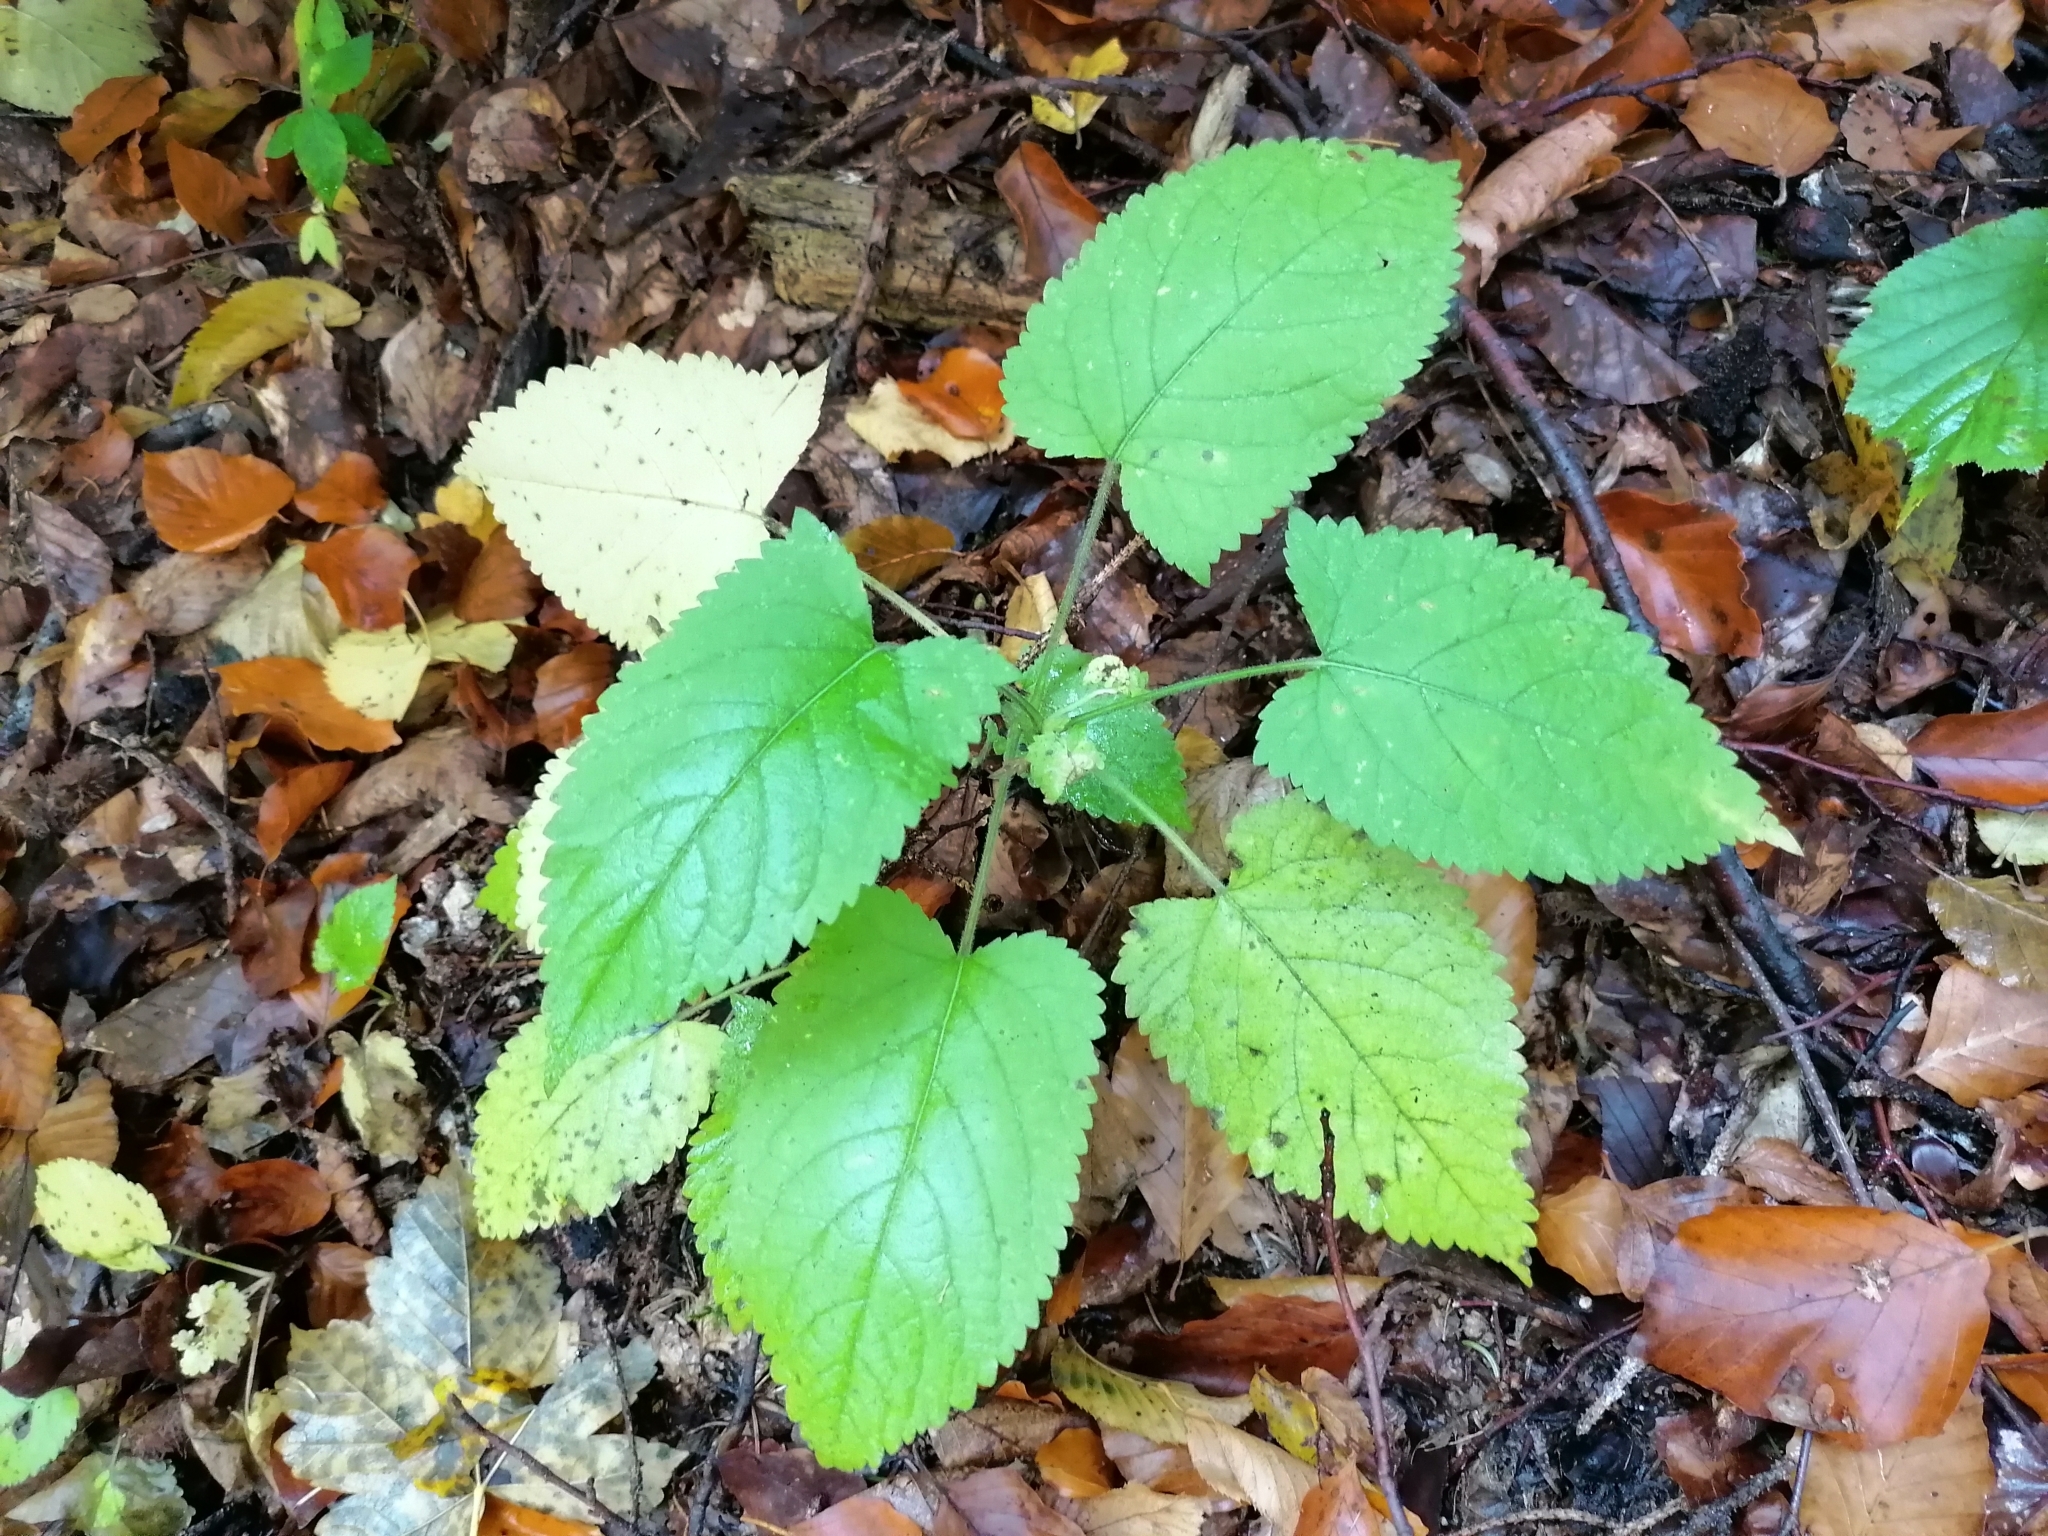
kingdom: Plantae
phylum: Tracheophyta
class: Magnoliopsida
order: Lamiales
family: Lamiaceae
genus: Salvia
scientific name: Salvia glutinosa
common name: Sticky clary
